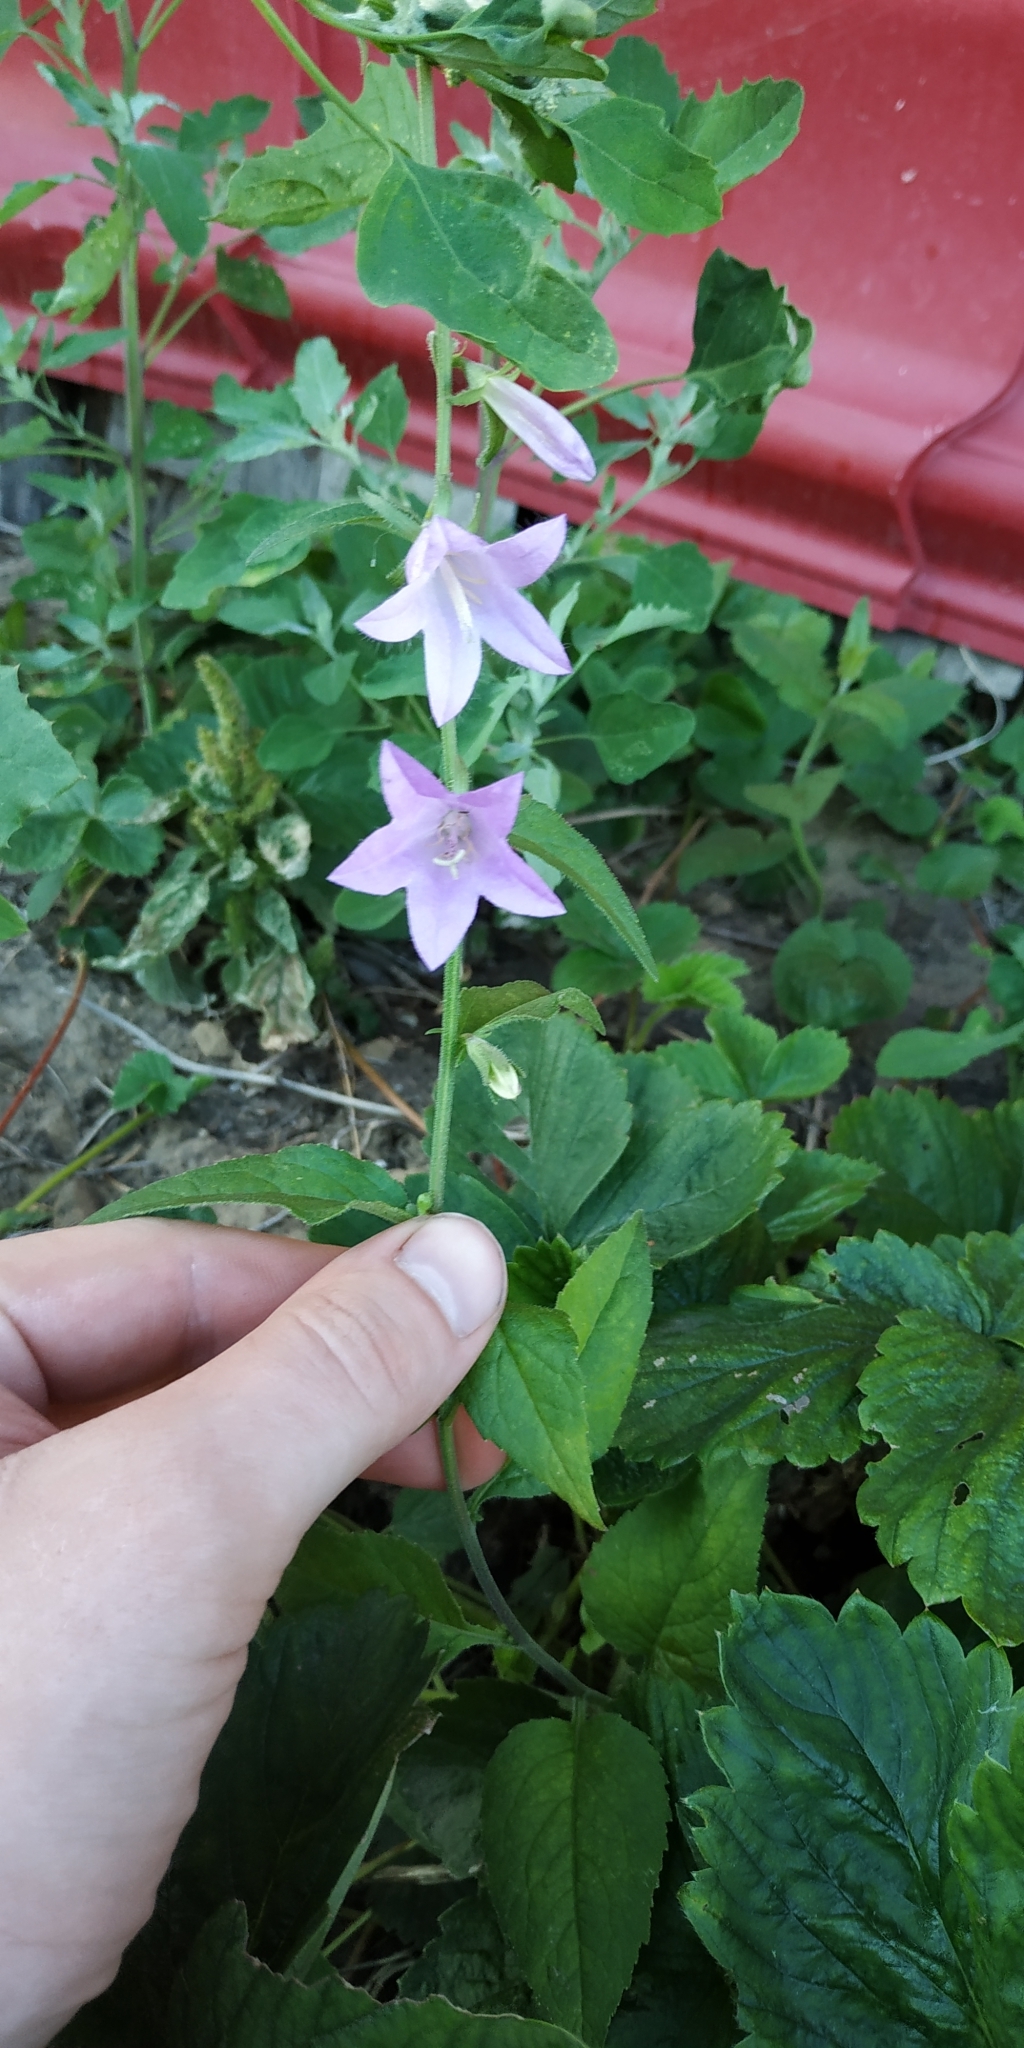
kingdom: Plantae
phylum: Tracheophyta
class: Magnoliopsida
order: Asterales
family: Campanulaceae
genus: Campanula
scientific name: Campanula rapunculoides
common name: Creeping bellflower
